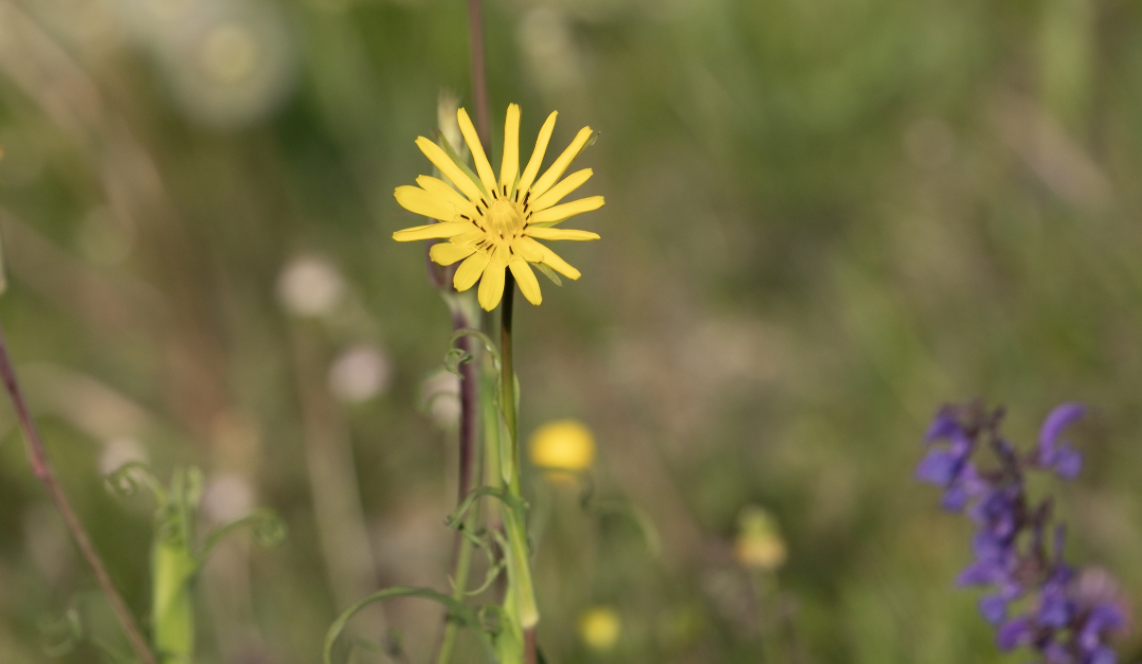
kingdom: Plantae
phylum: Tracheophyta
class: Magnoliopsida
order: Asterales
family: Asteraceae
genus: Tragopogon
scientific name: Tragopogon pratensis
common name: Goat's-beard
